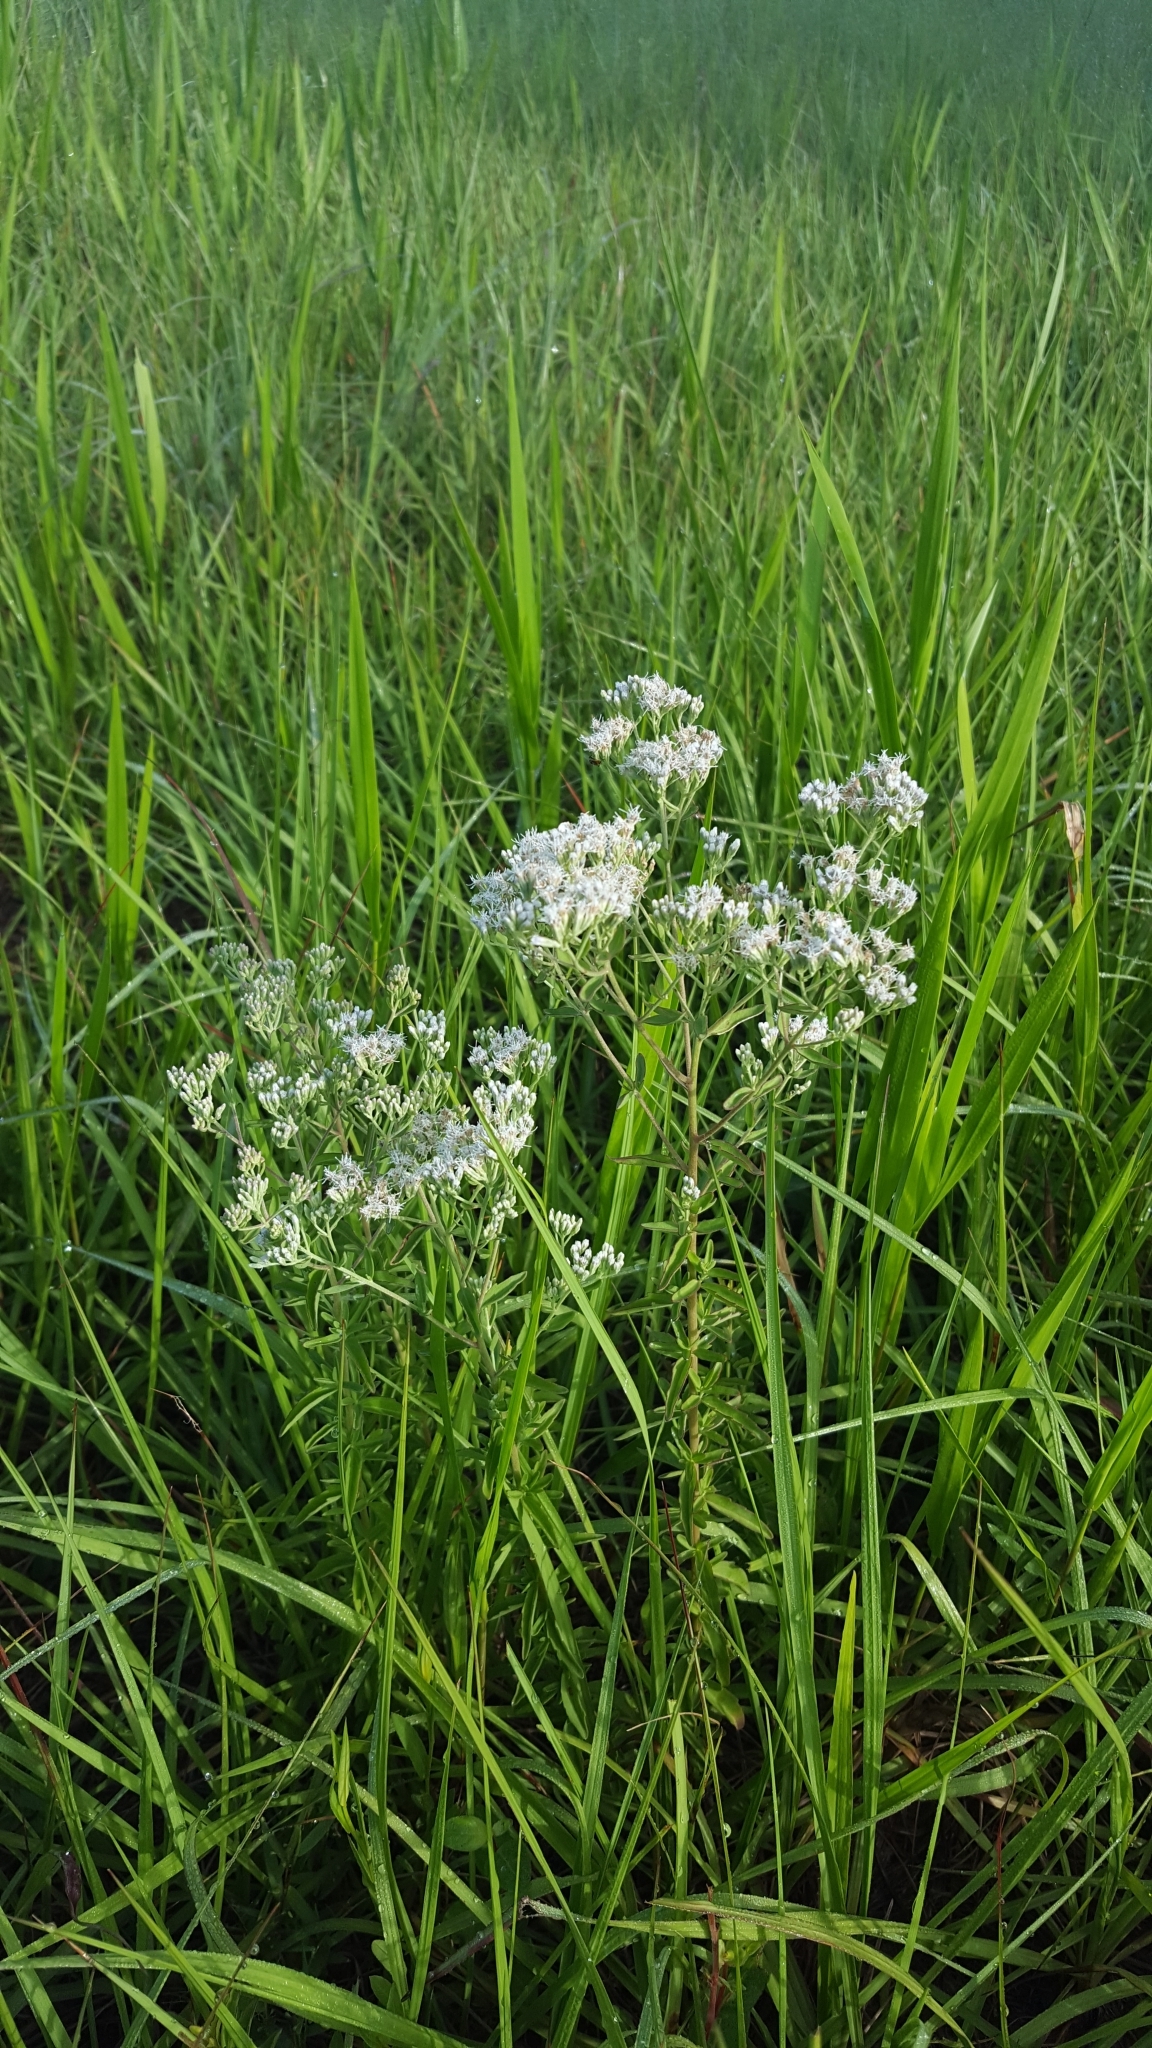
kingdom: Plantae
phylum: Tracheophyta
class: Magnoliopsida
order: Asterales
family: Asteraceae
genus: Eupatorium
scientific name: Eupatorium mohrii
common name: Mohr's thoroughwort
